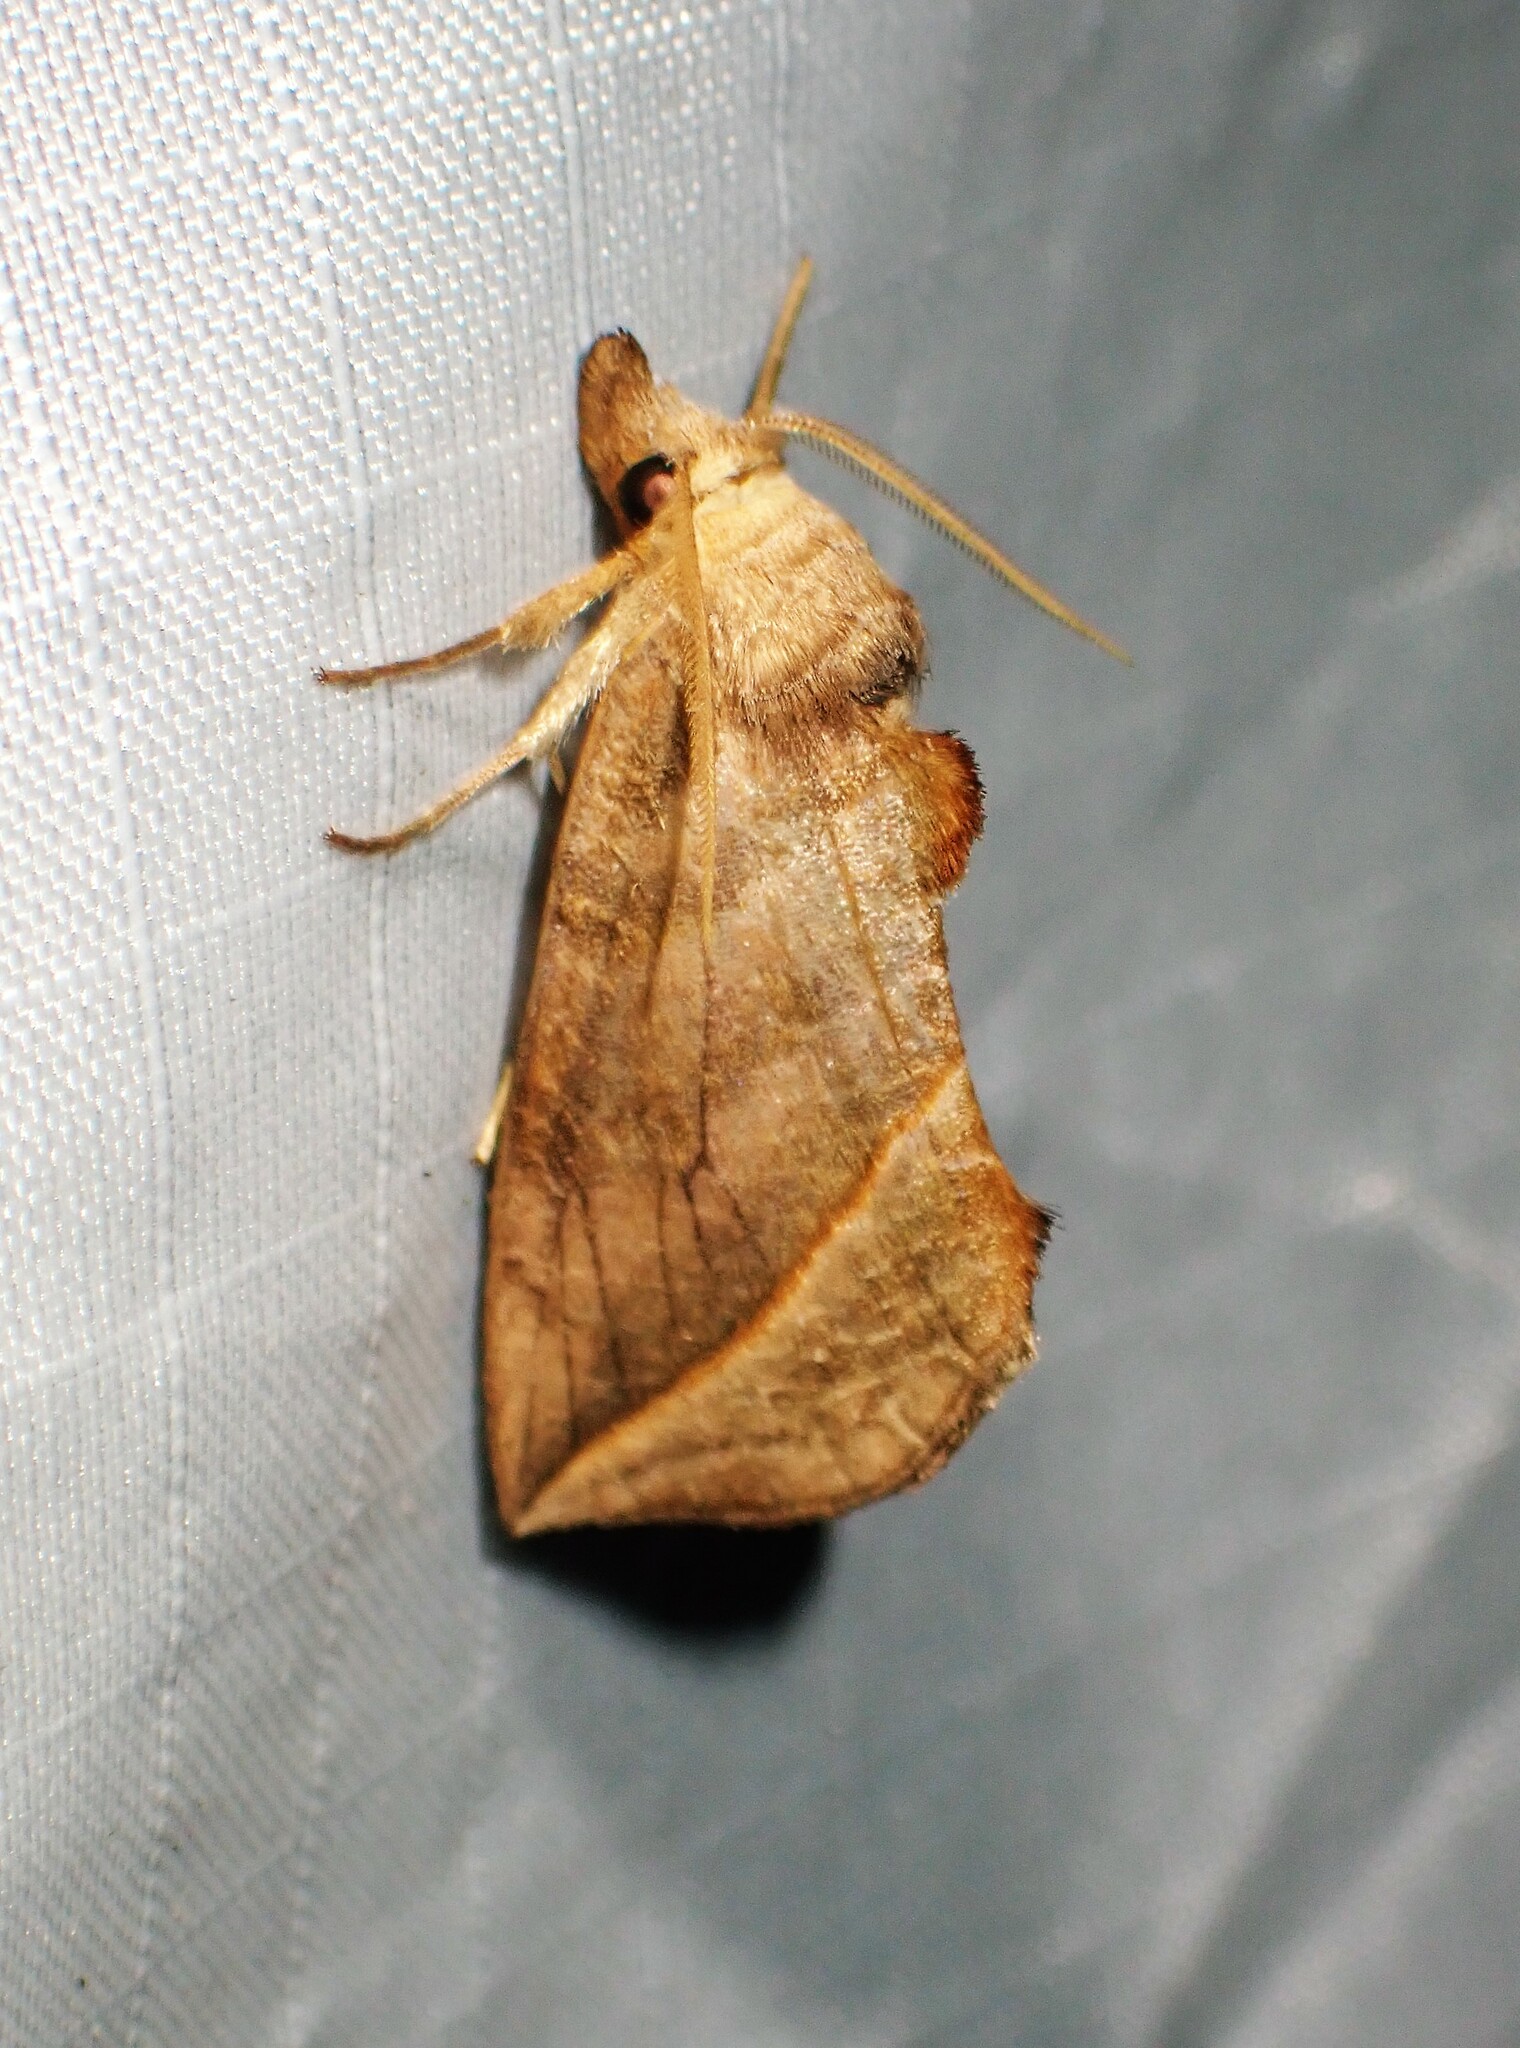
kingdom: Animalia
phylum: Arthropoda
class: Insecta
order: Lepidoptera
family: Erebidae
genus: Calyptra
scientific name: Calyptra canadensis
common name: Canadian owlet
